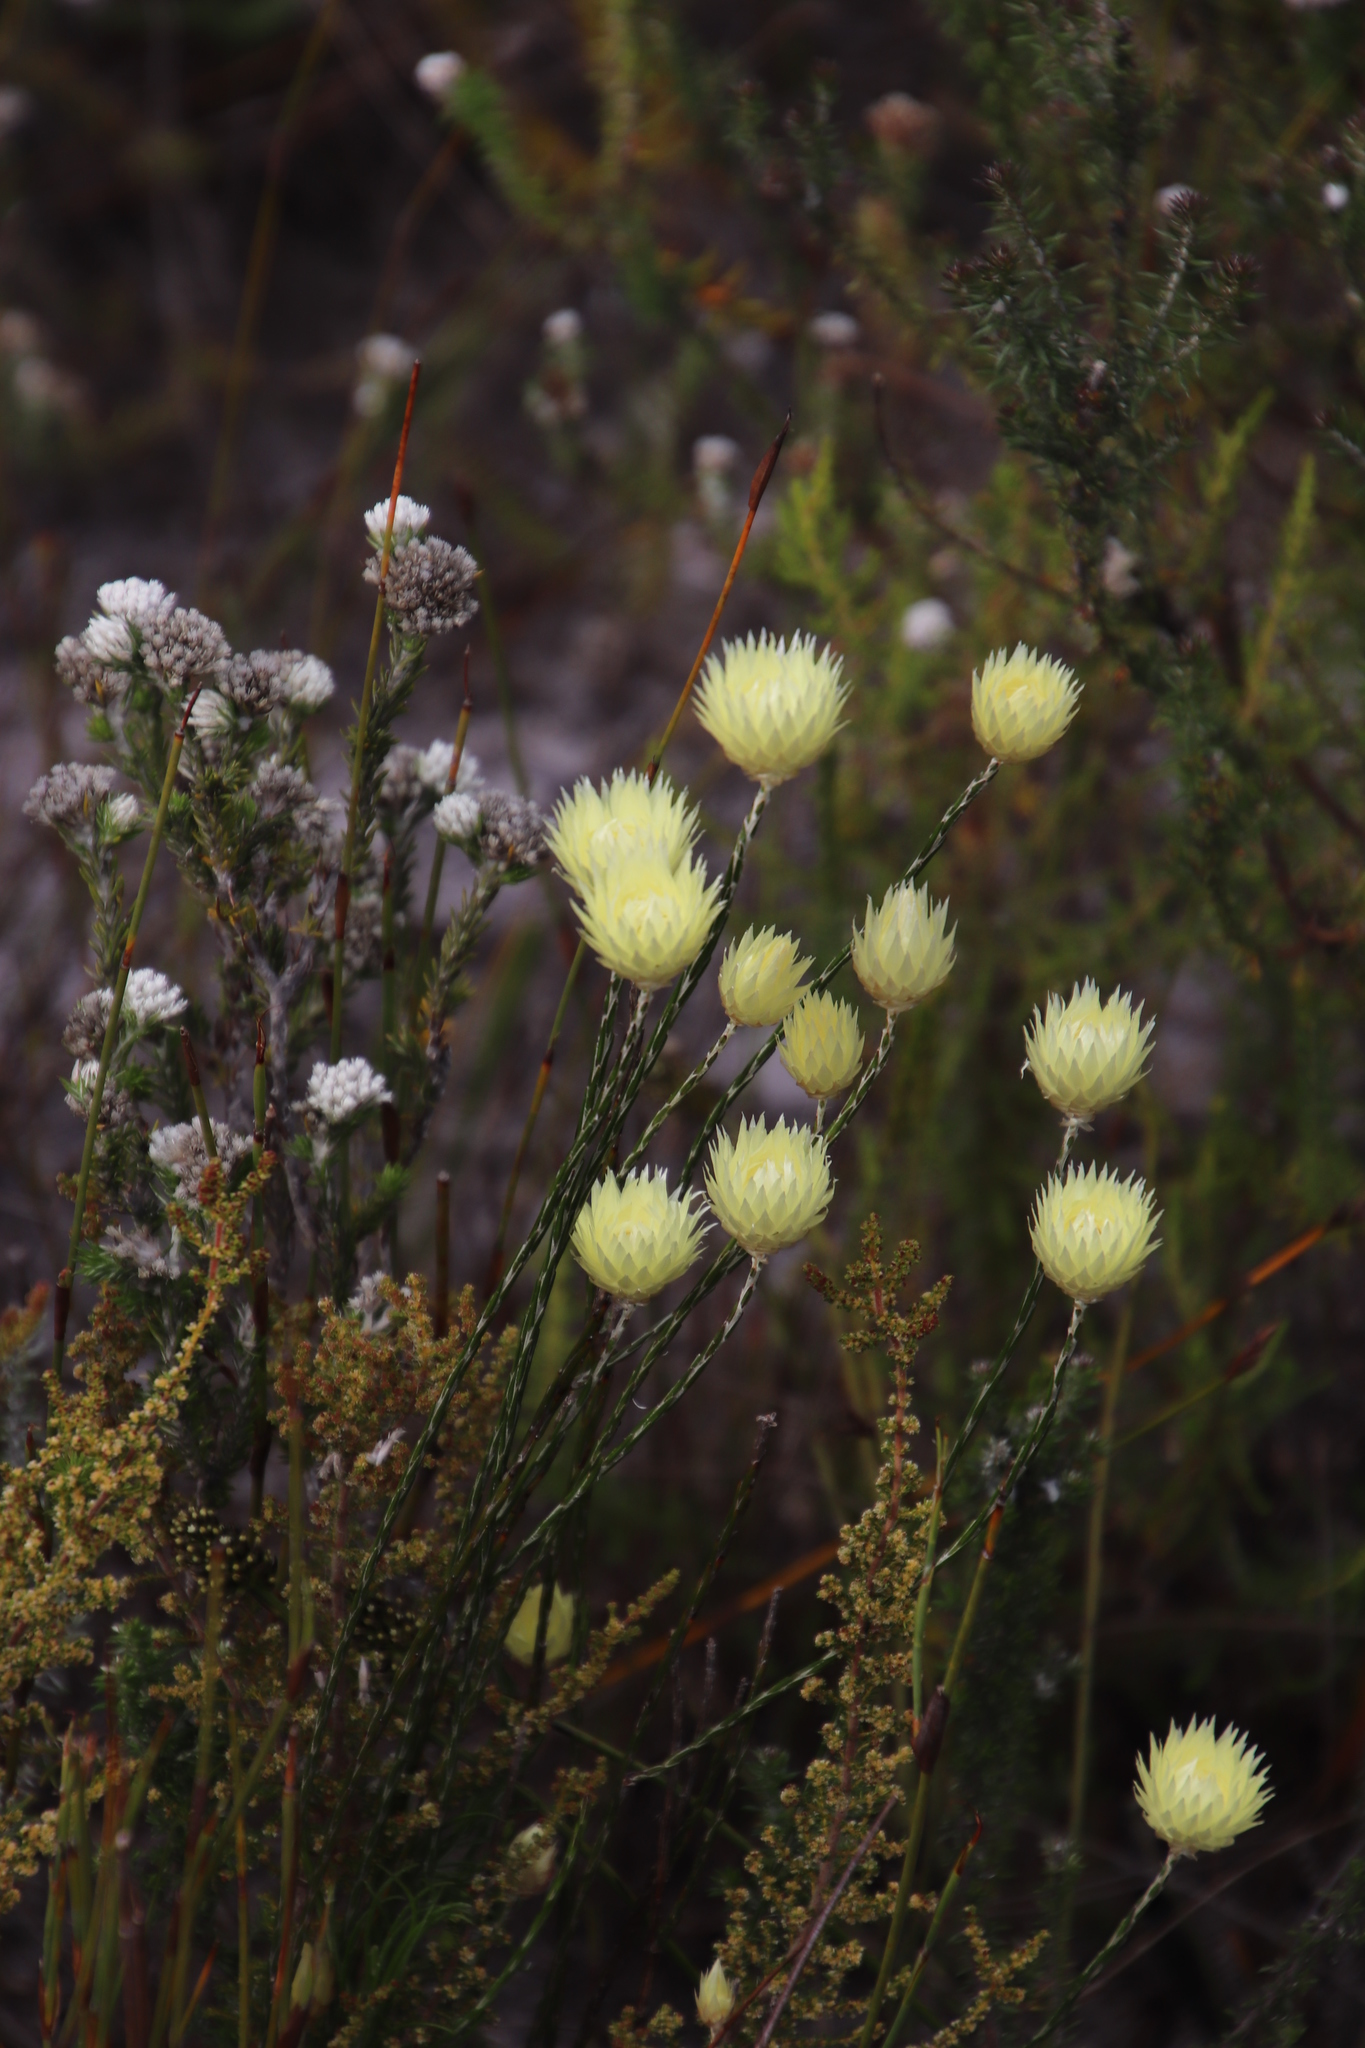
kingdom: Plantae
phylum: Tracheophyta
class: Magnoliopsida
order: Asterales
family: Asteraceae
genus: Edmondia
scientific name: Edmondia sesamoides
